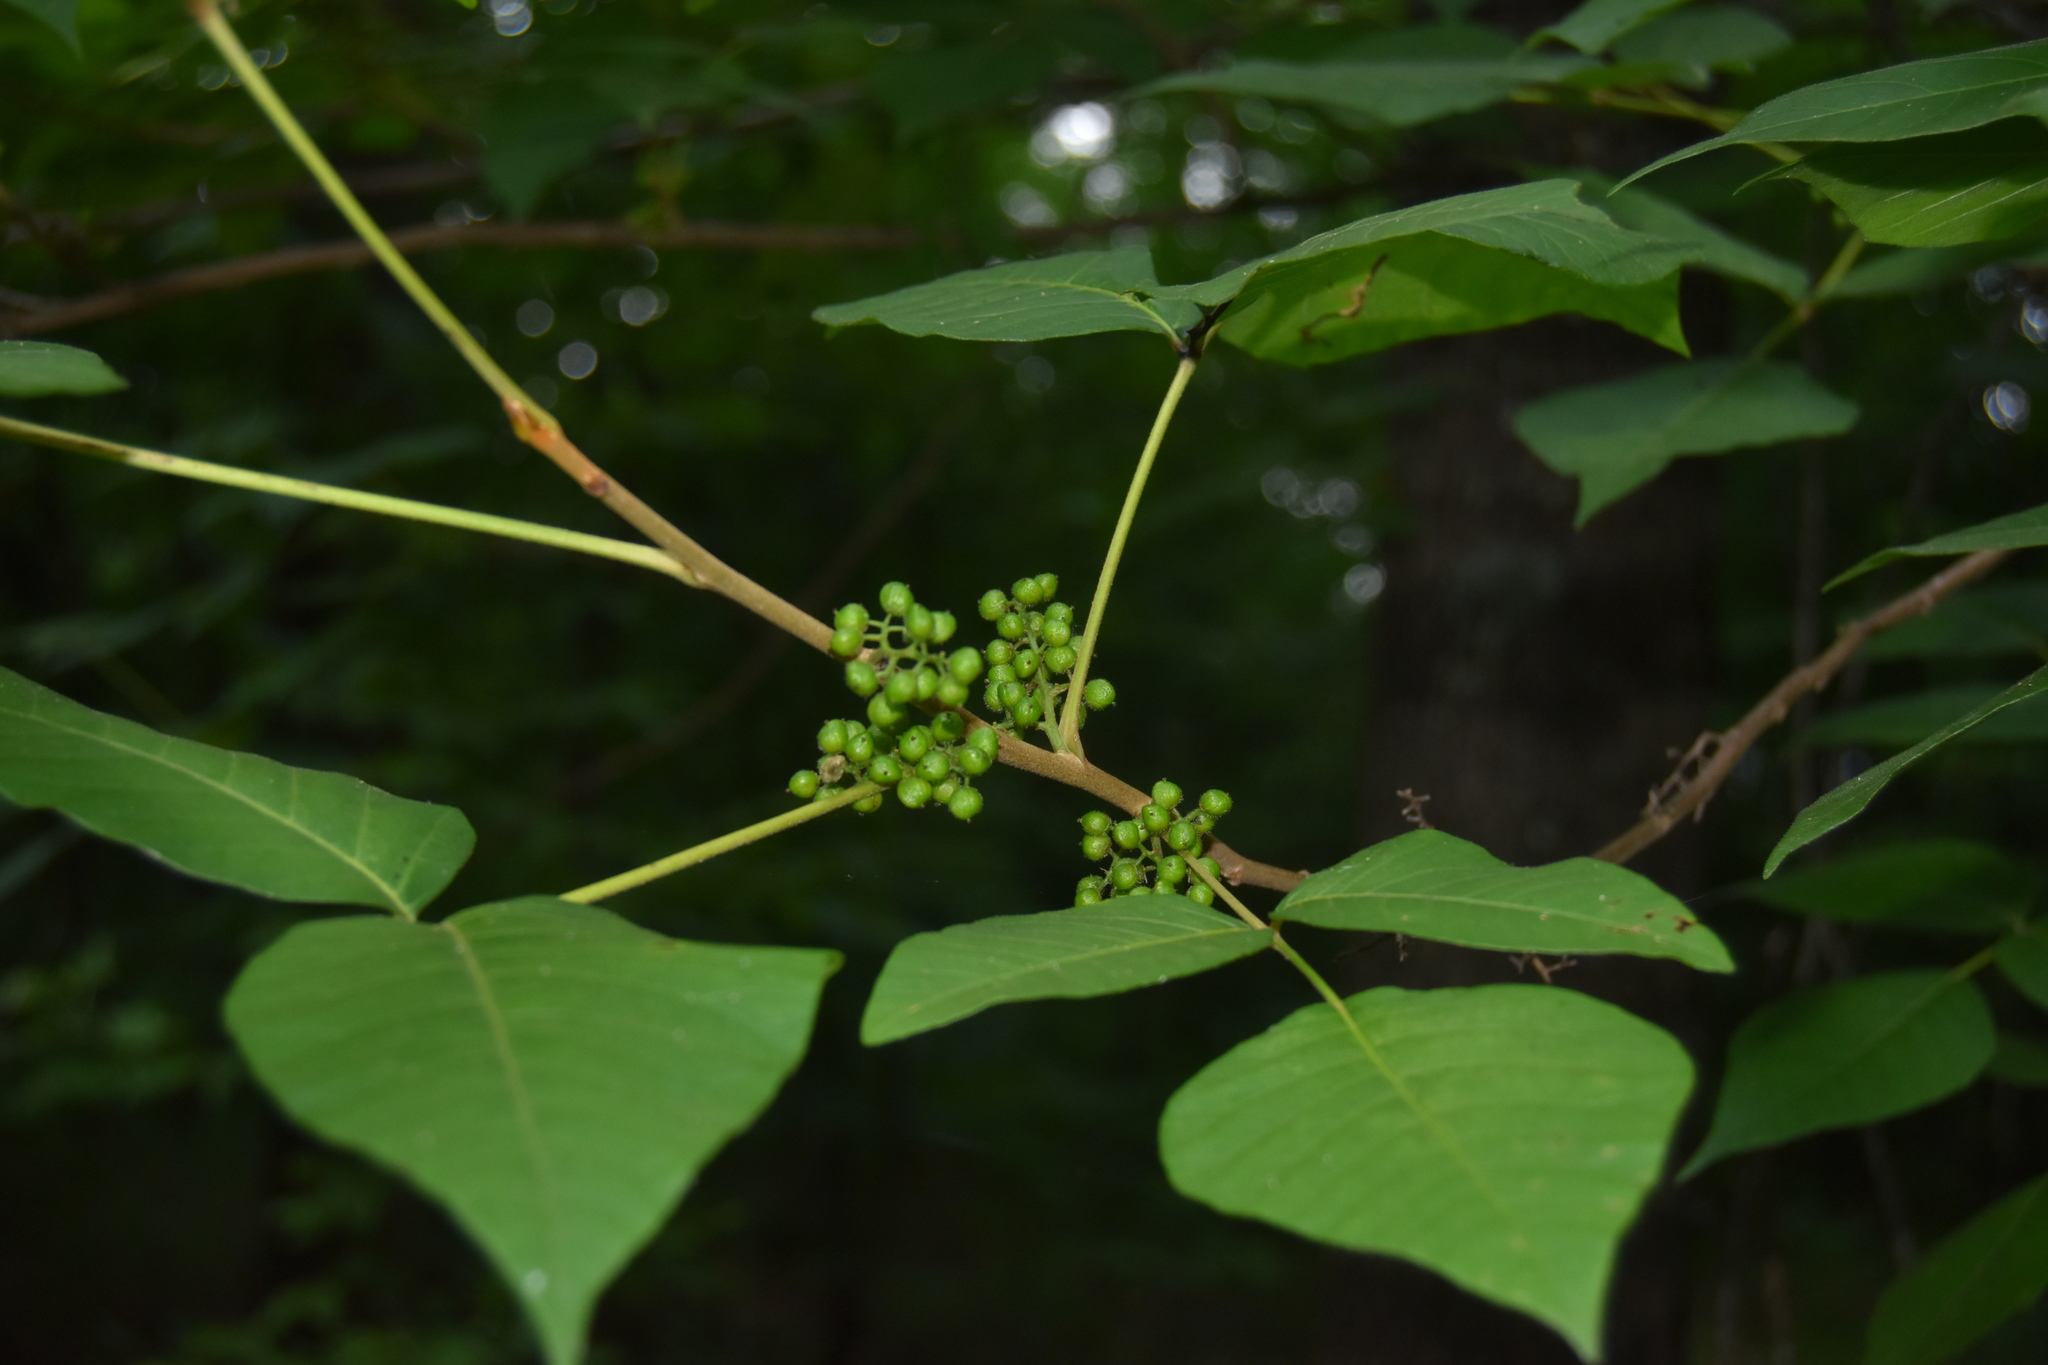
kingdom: Plantae
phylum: Tracheophyta
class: Magnoliopsida
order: Sapindales
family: Anacardiaceae
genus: Toxicodendron
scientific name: Toxicodendron radicans
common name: Poison ivy
